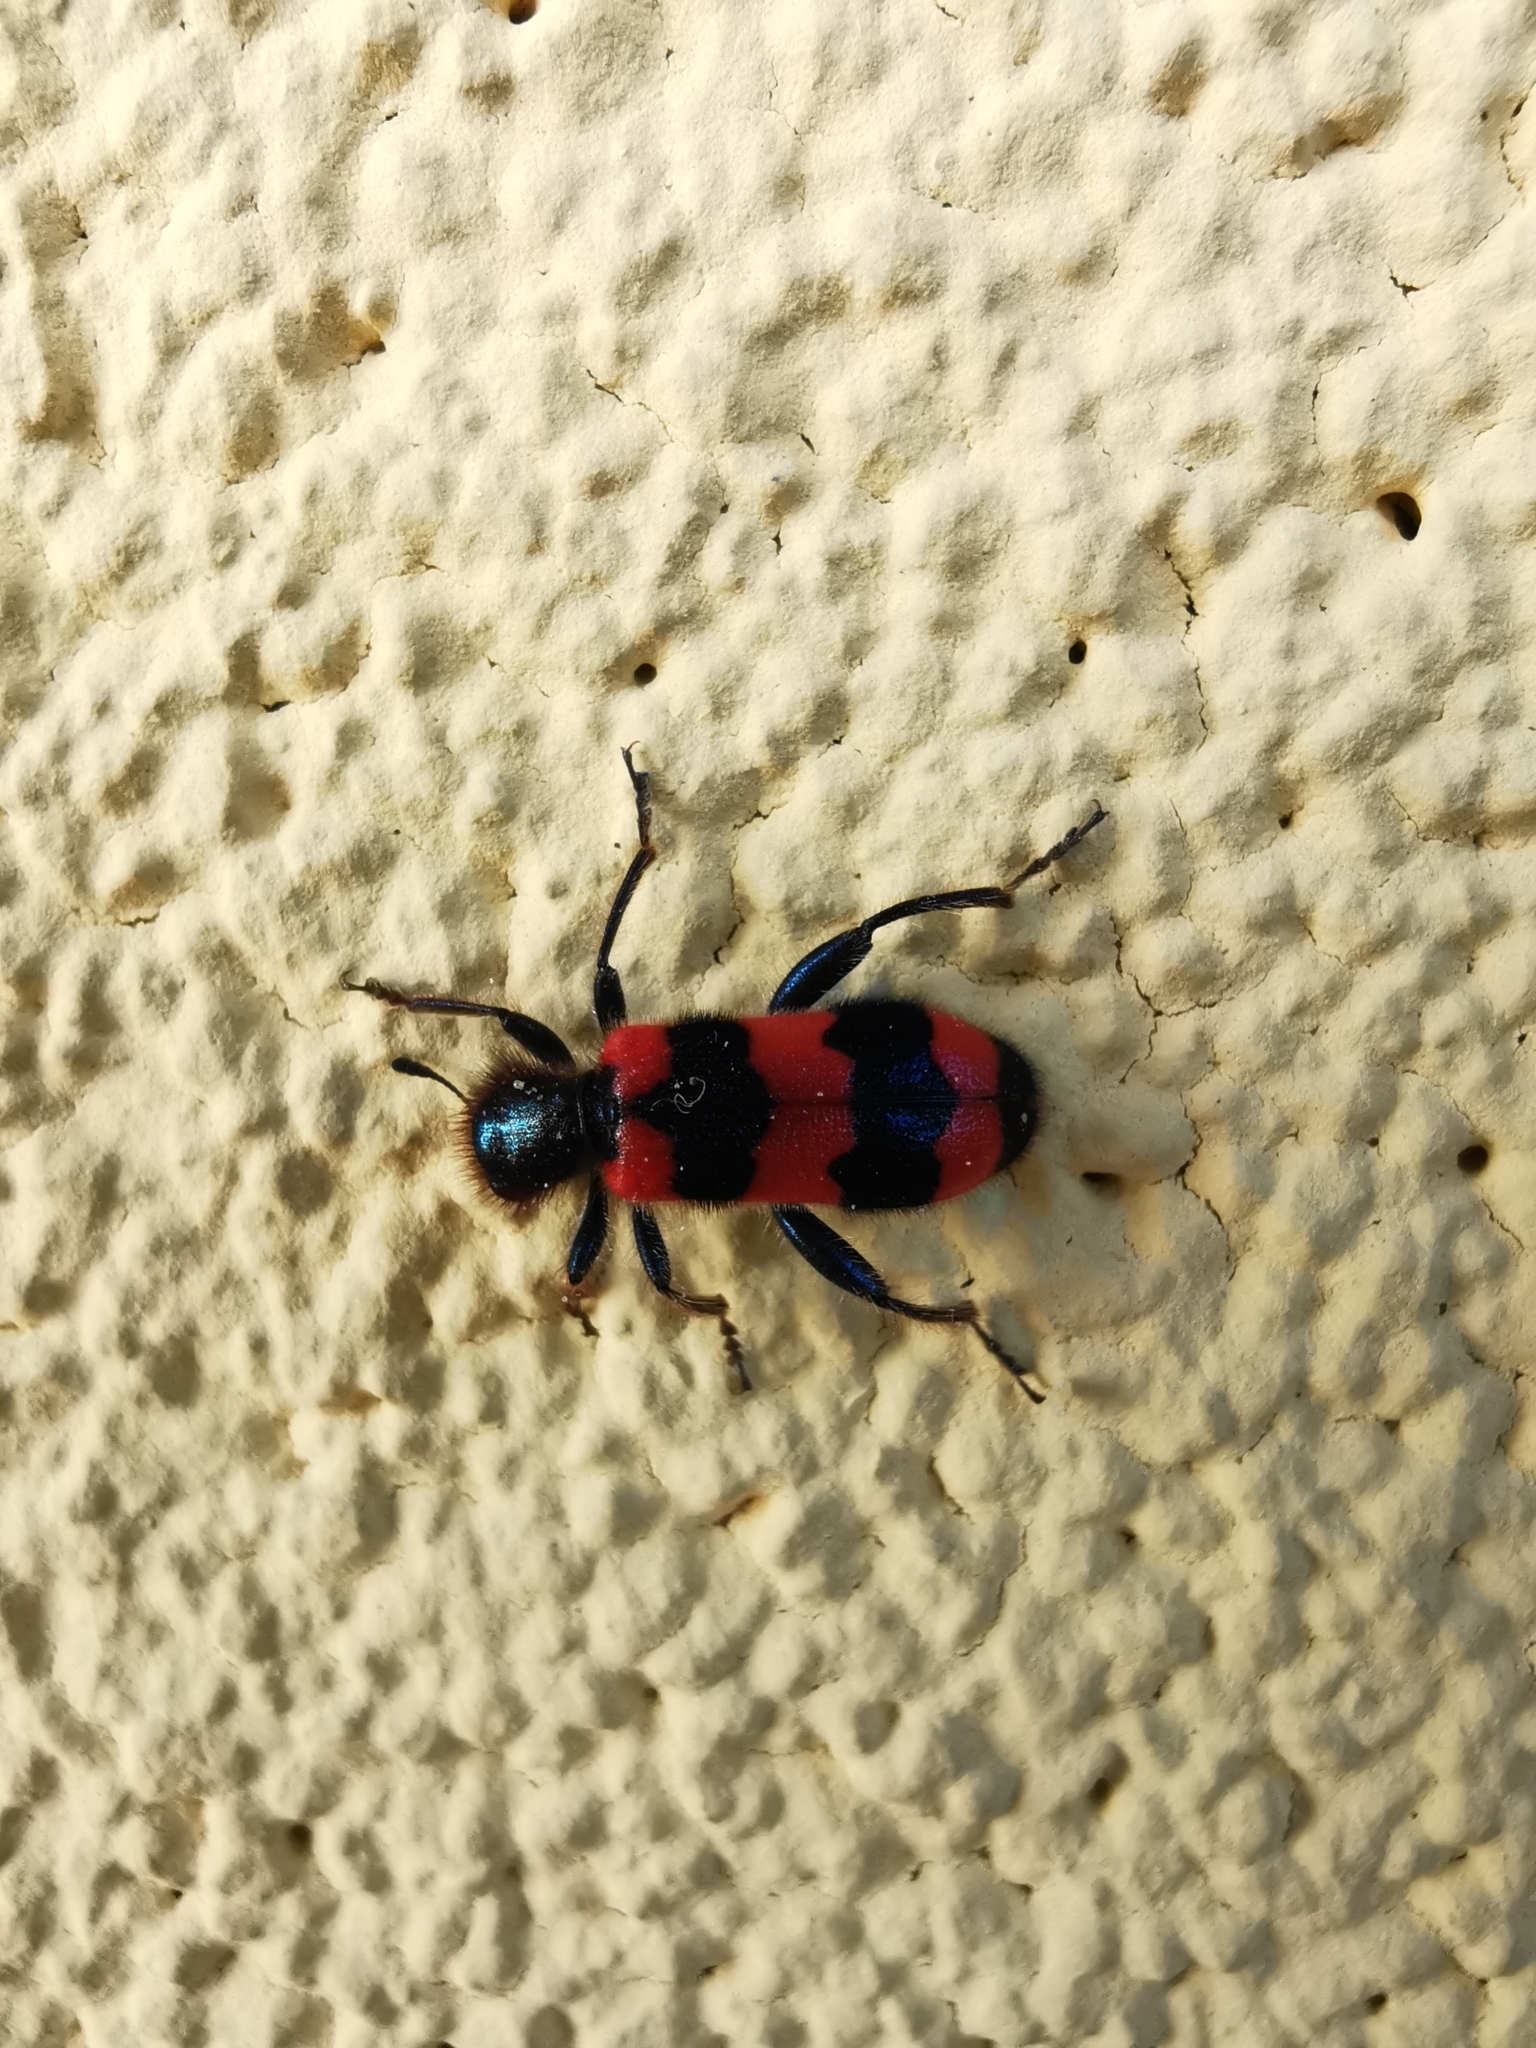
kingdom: Animalia
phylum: Arthropoda
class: Insecta
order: Coleoptera
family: Cleridae
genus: Trichodes
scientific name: Trichodes apiarius
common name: Bee-eating beetle
